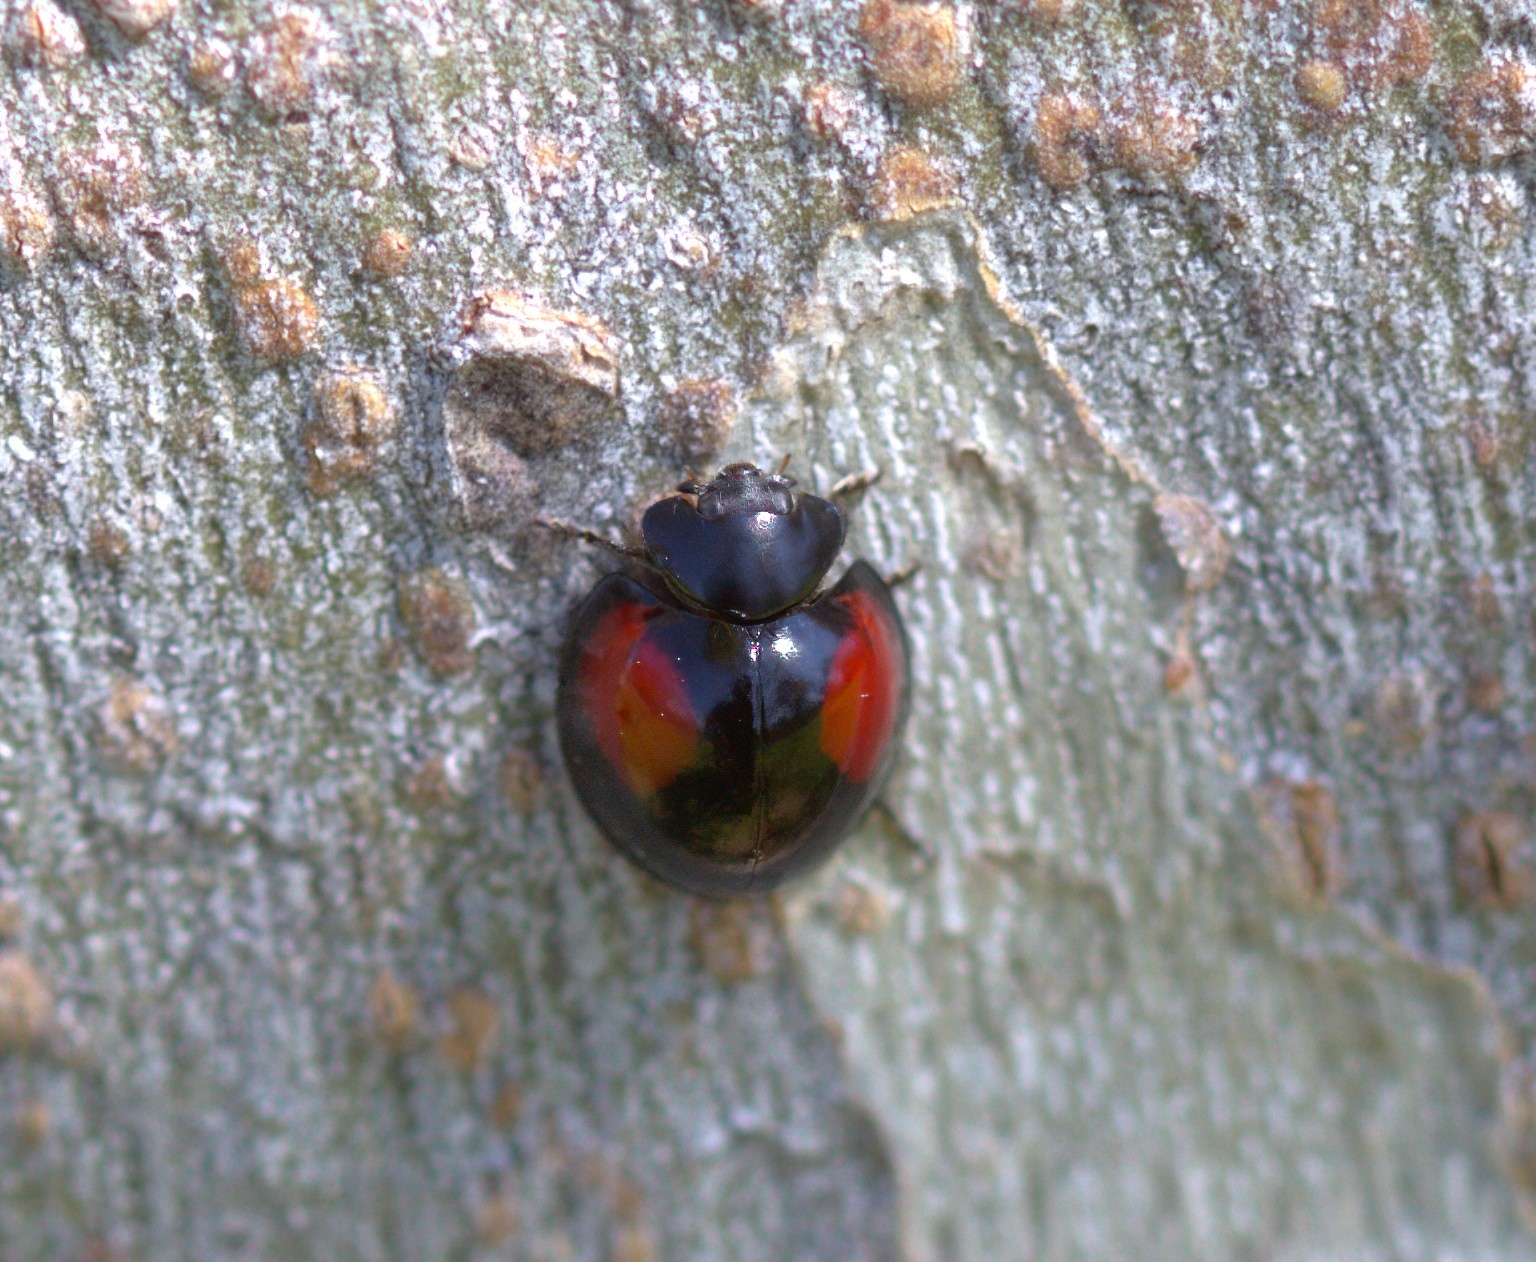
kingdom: Animalia
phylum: Arthropoda
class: Insecta
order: Coleoptera
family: Coccinellidae
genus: Axion
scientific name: Axion plagiatum
